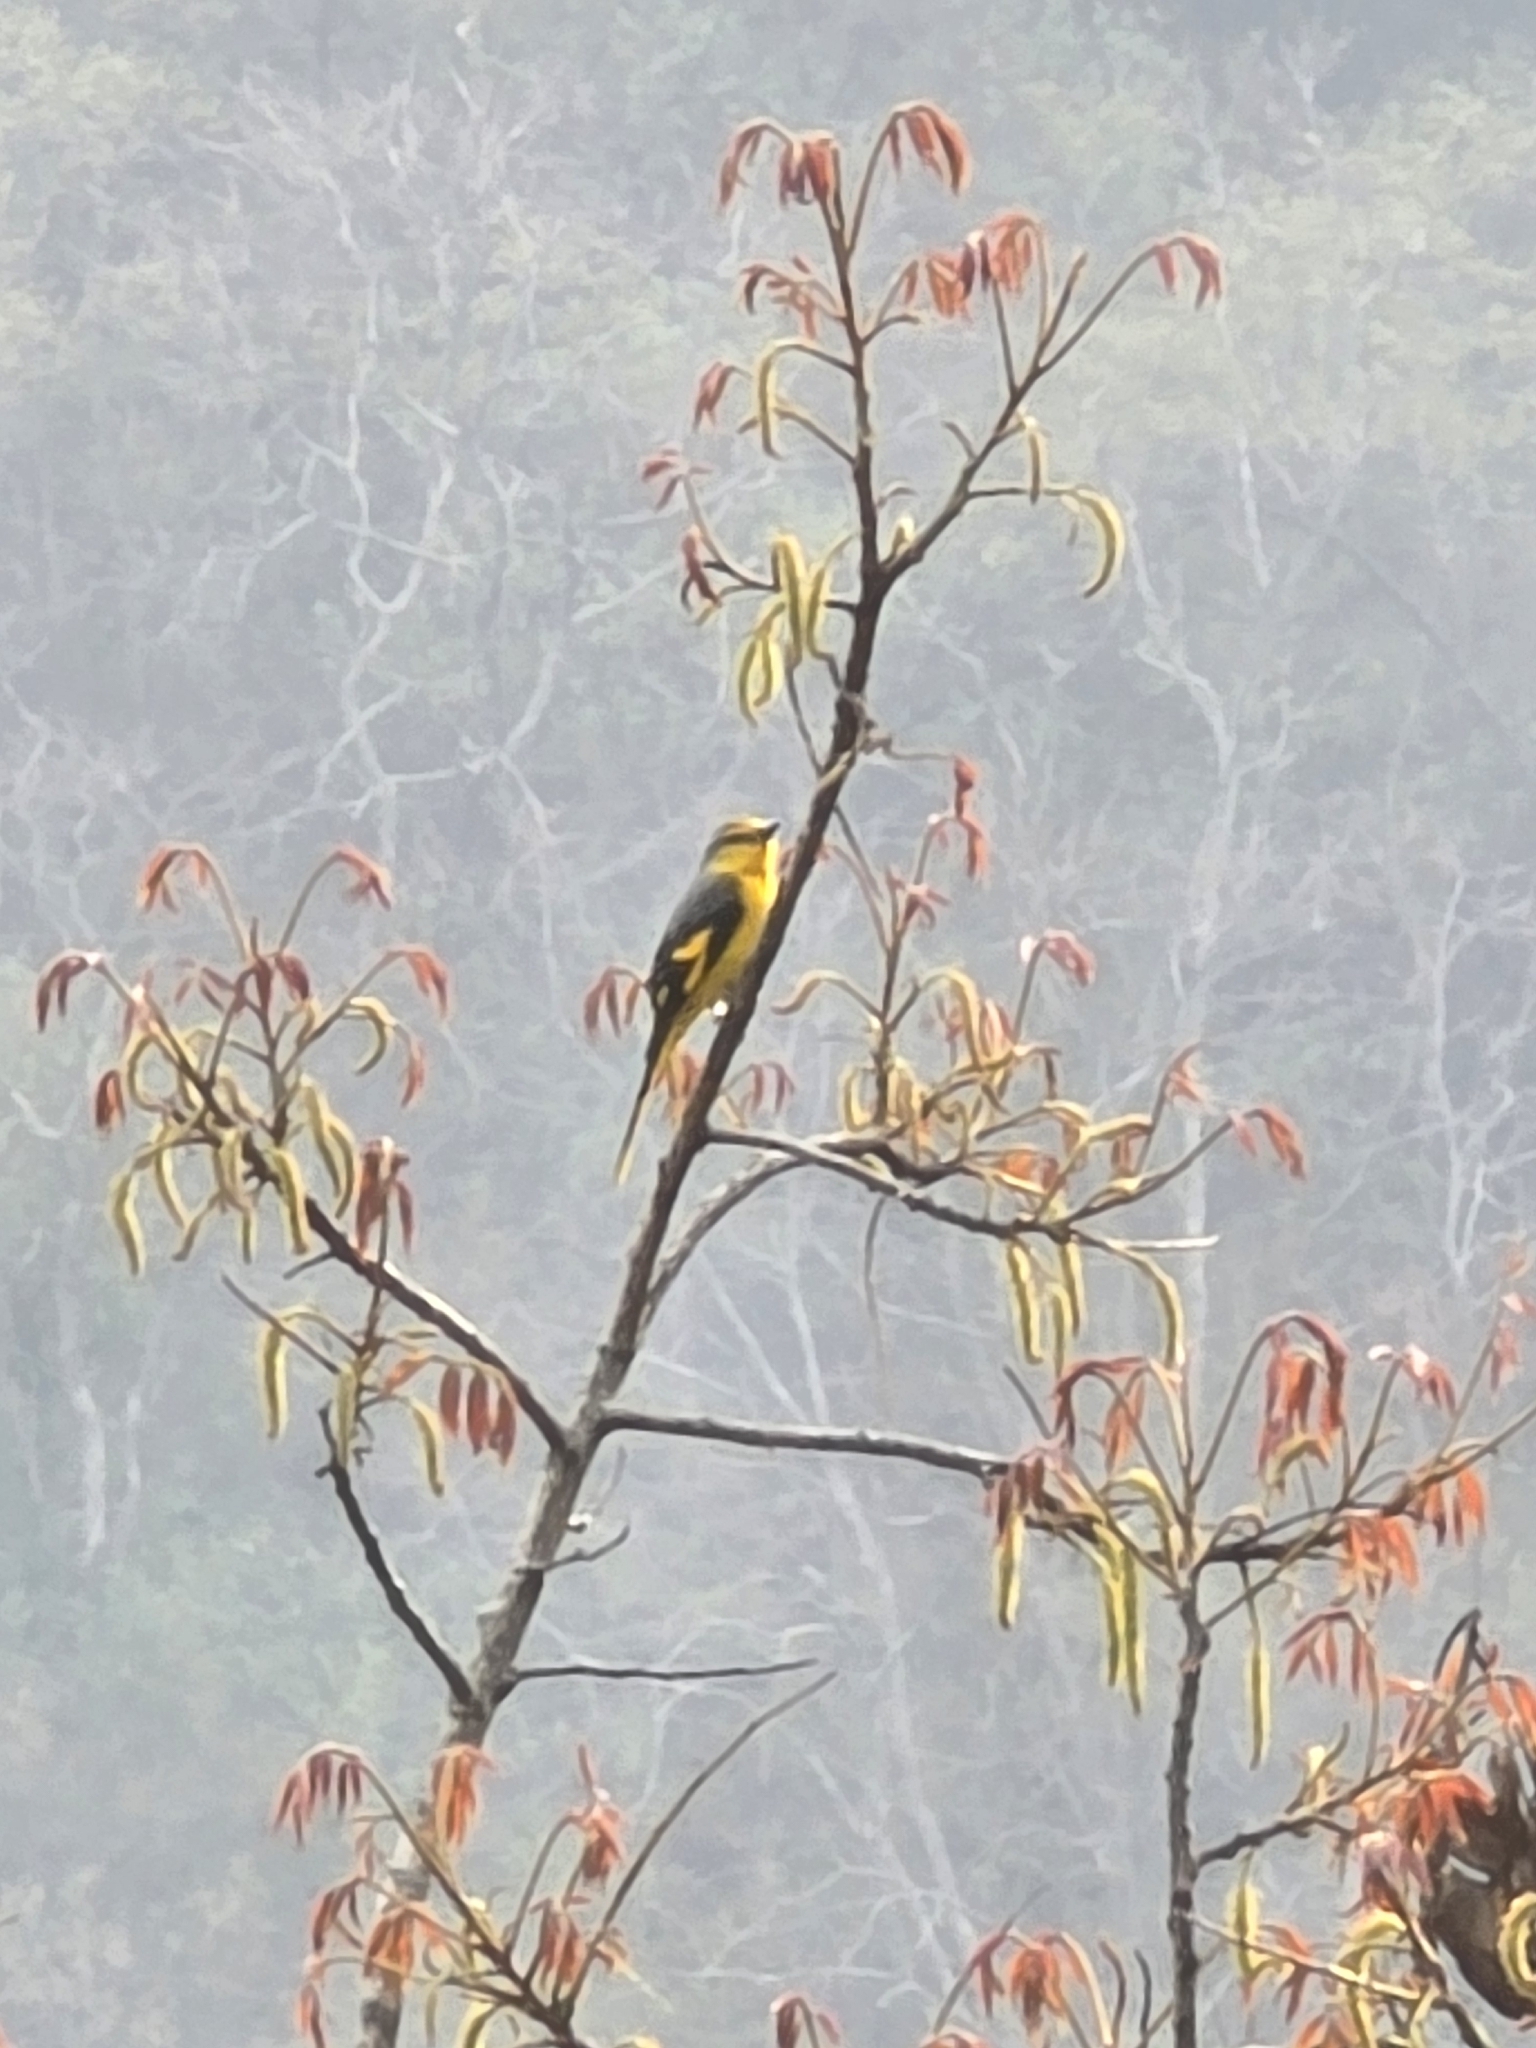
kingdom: Animalia
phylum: Chordata
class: Aves
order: Passeriformes
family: Campephagidae
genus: Pericrocotus
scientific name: Pericrocotus speciosus
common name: Scarlet minivet
